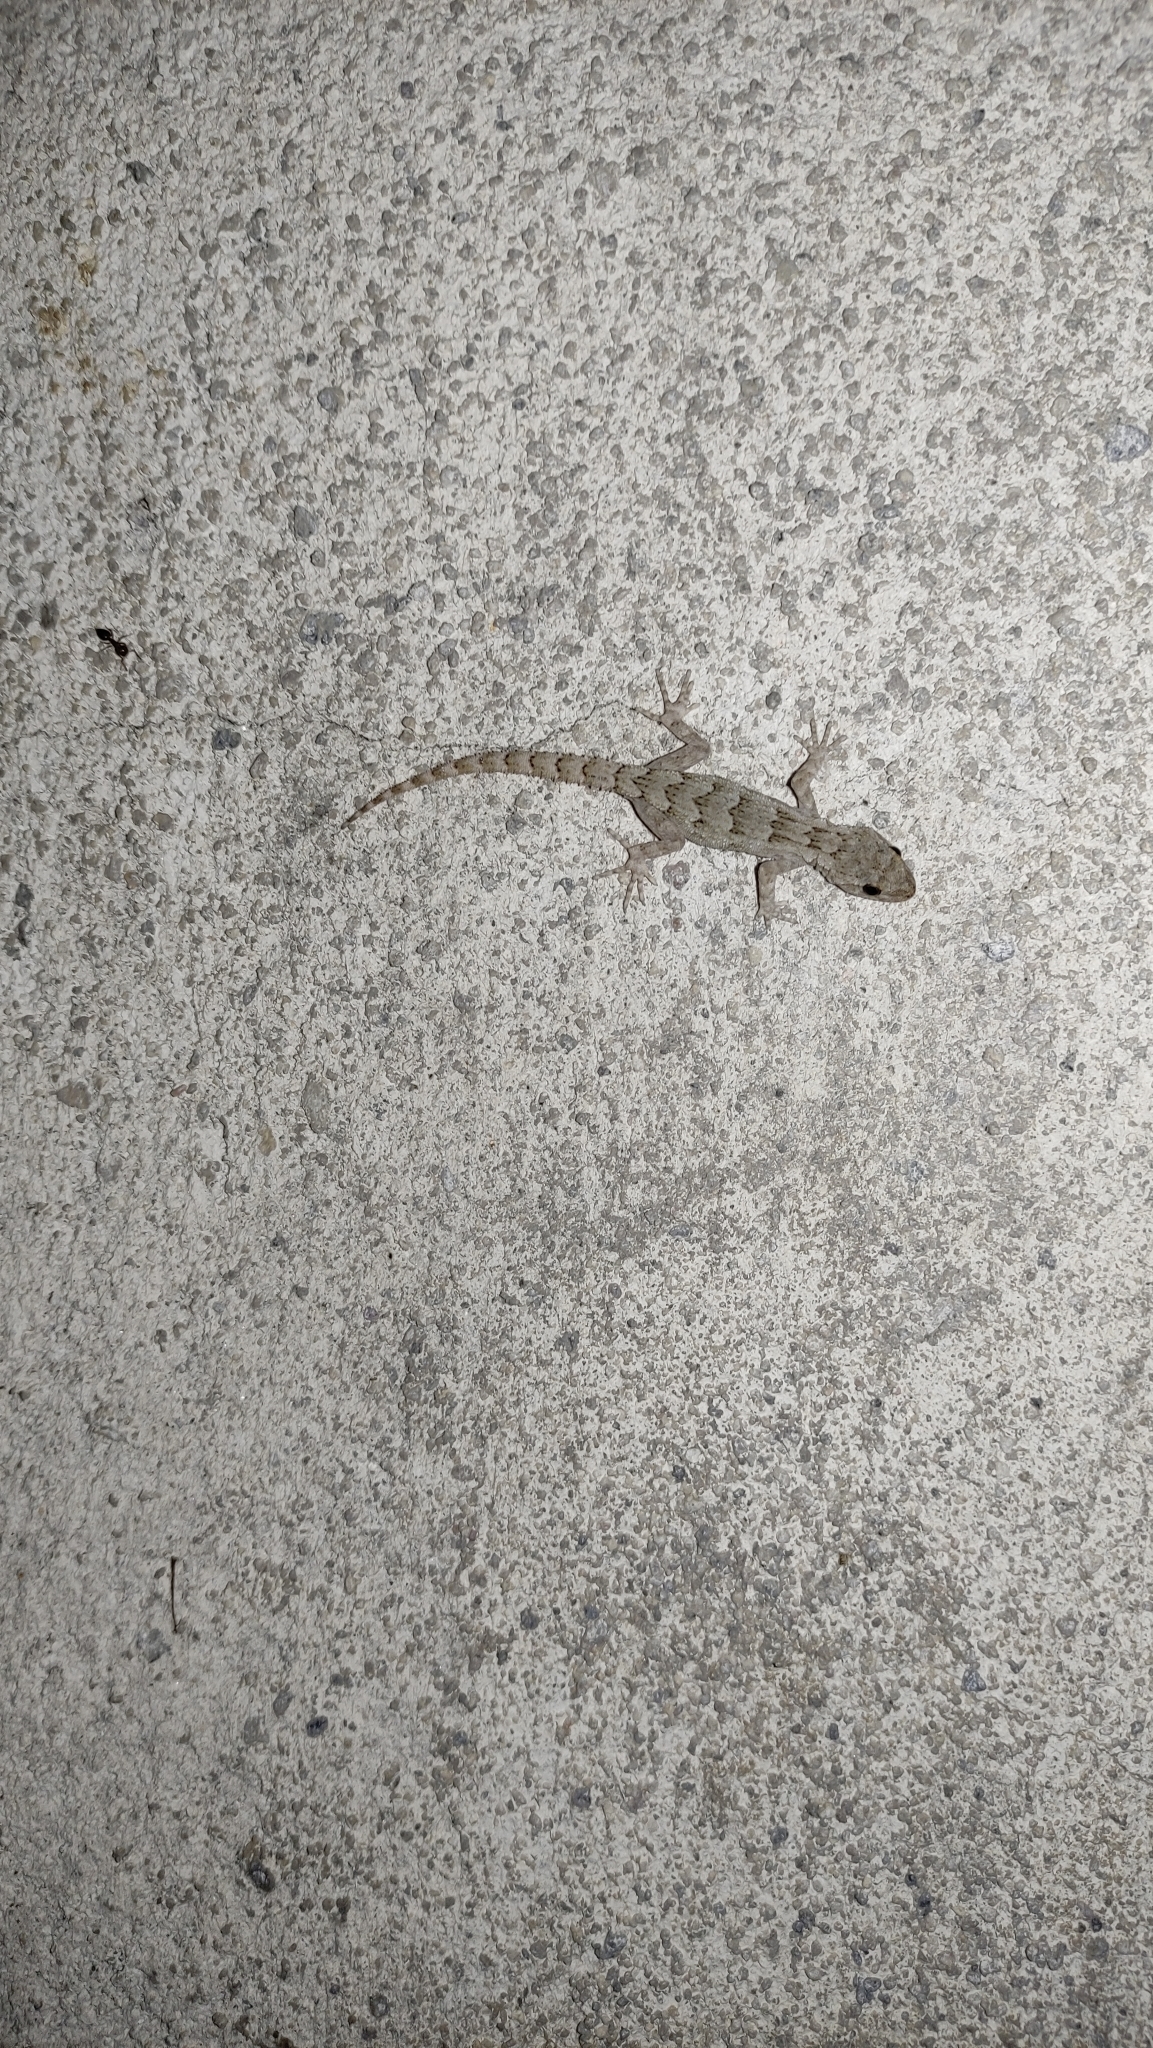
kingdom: Animalia
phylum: Chordata
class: Squamata
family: Gekkonidae
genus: Mediodactylus
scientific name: Mediodactylus kotschyi
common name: Kotschy's gecko
